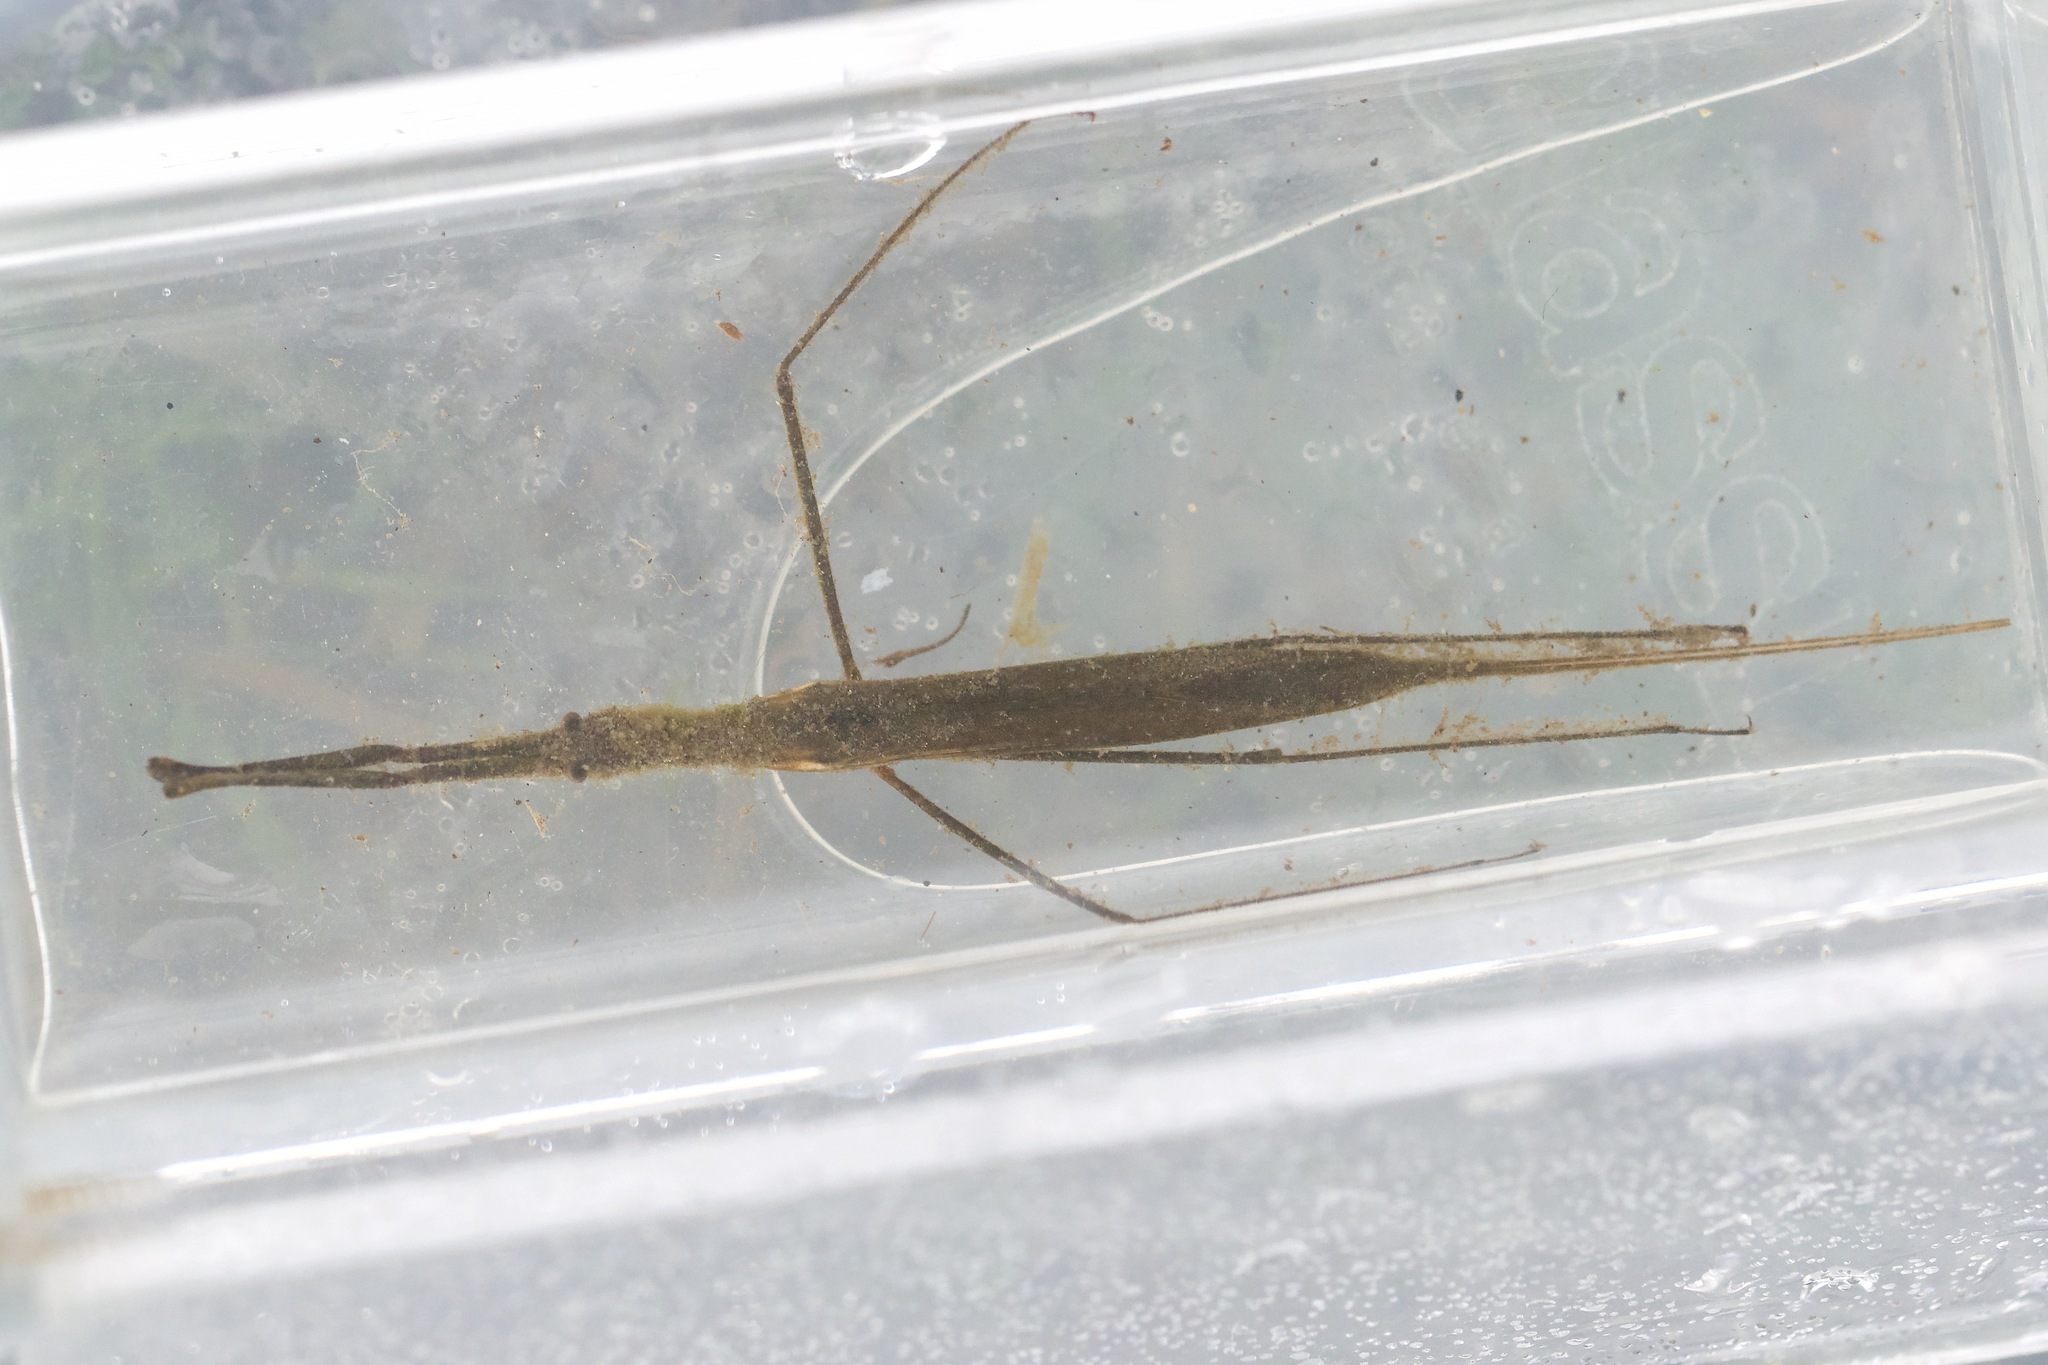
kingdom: Animalia
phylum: Arthropoda
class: Insecta
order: Hemiptera
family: Nepidae
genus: Ranatra
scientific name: Ranatra
